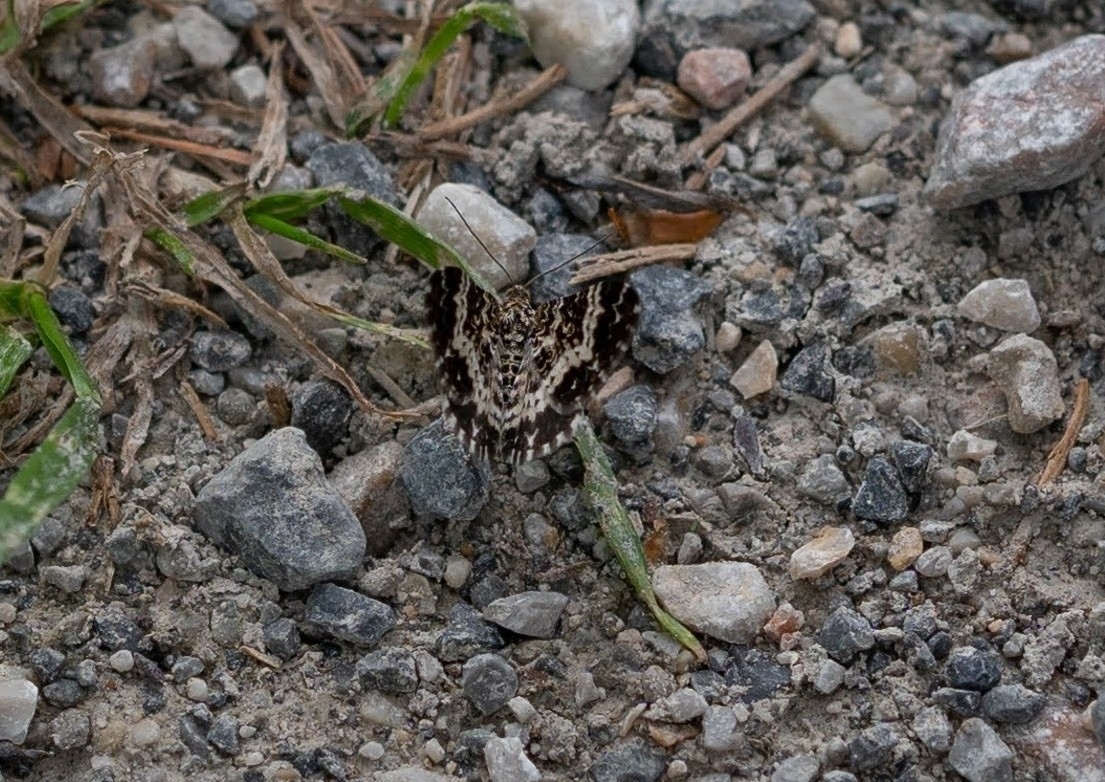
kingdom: Animalia
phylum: Arthropoda
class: Insecta
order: Lepidoptera
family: Geometridae
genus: Epirrhoe
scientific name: Epirrhoe tristata
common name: Small argent & sable
